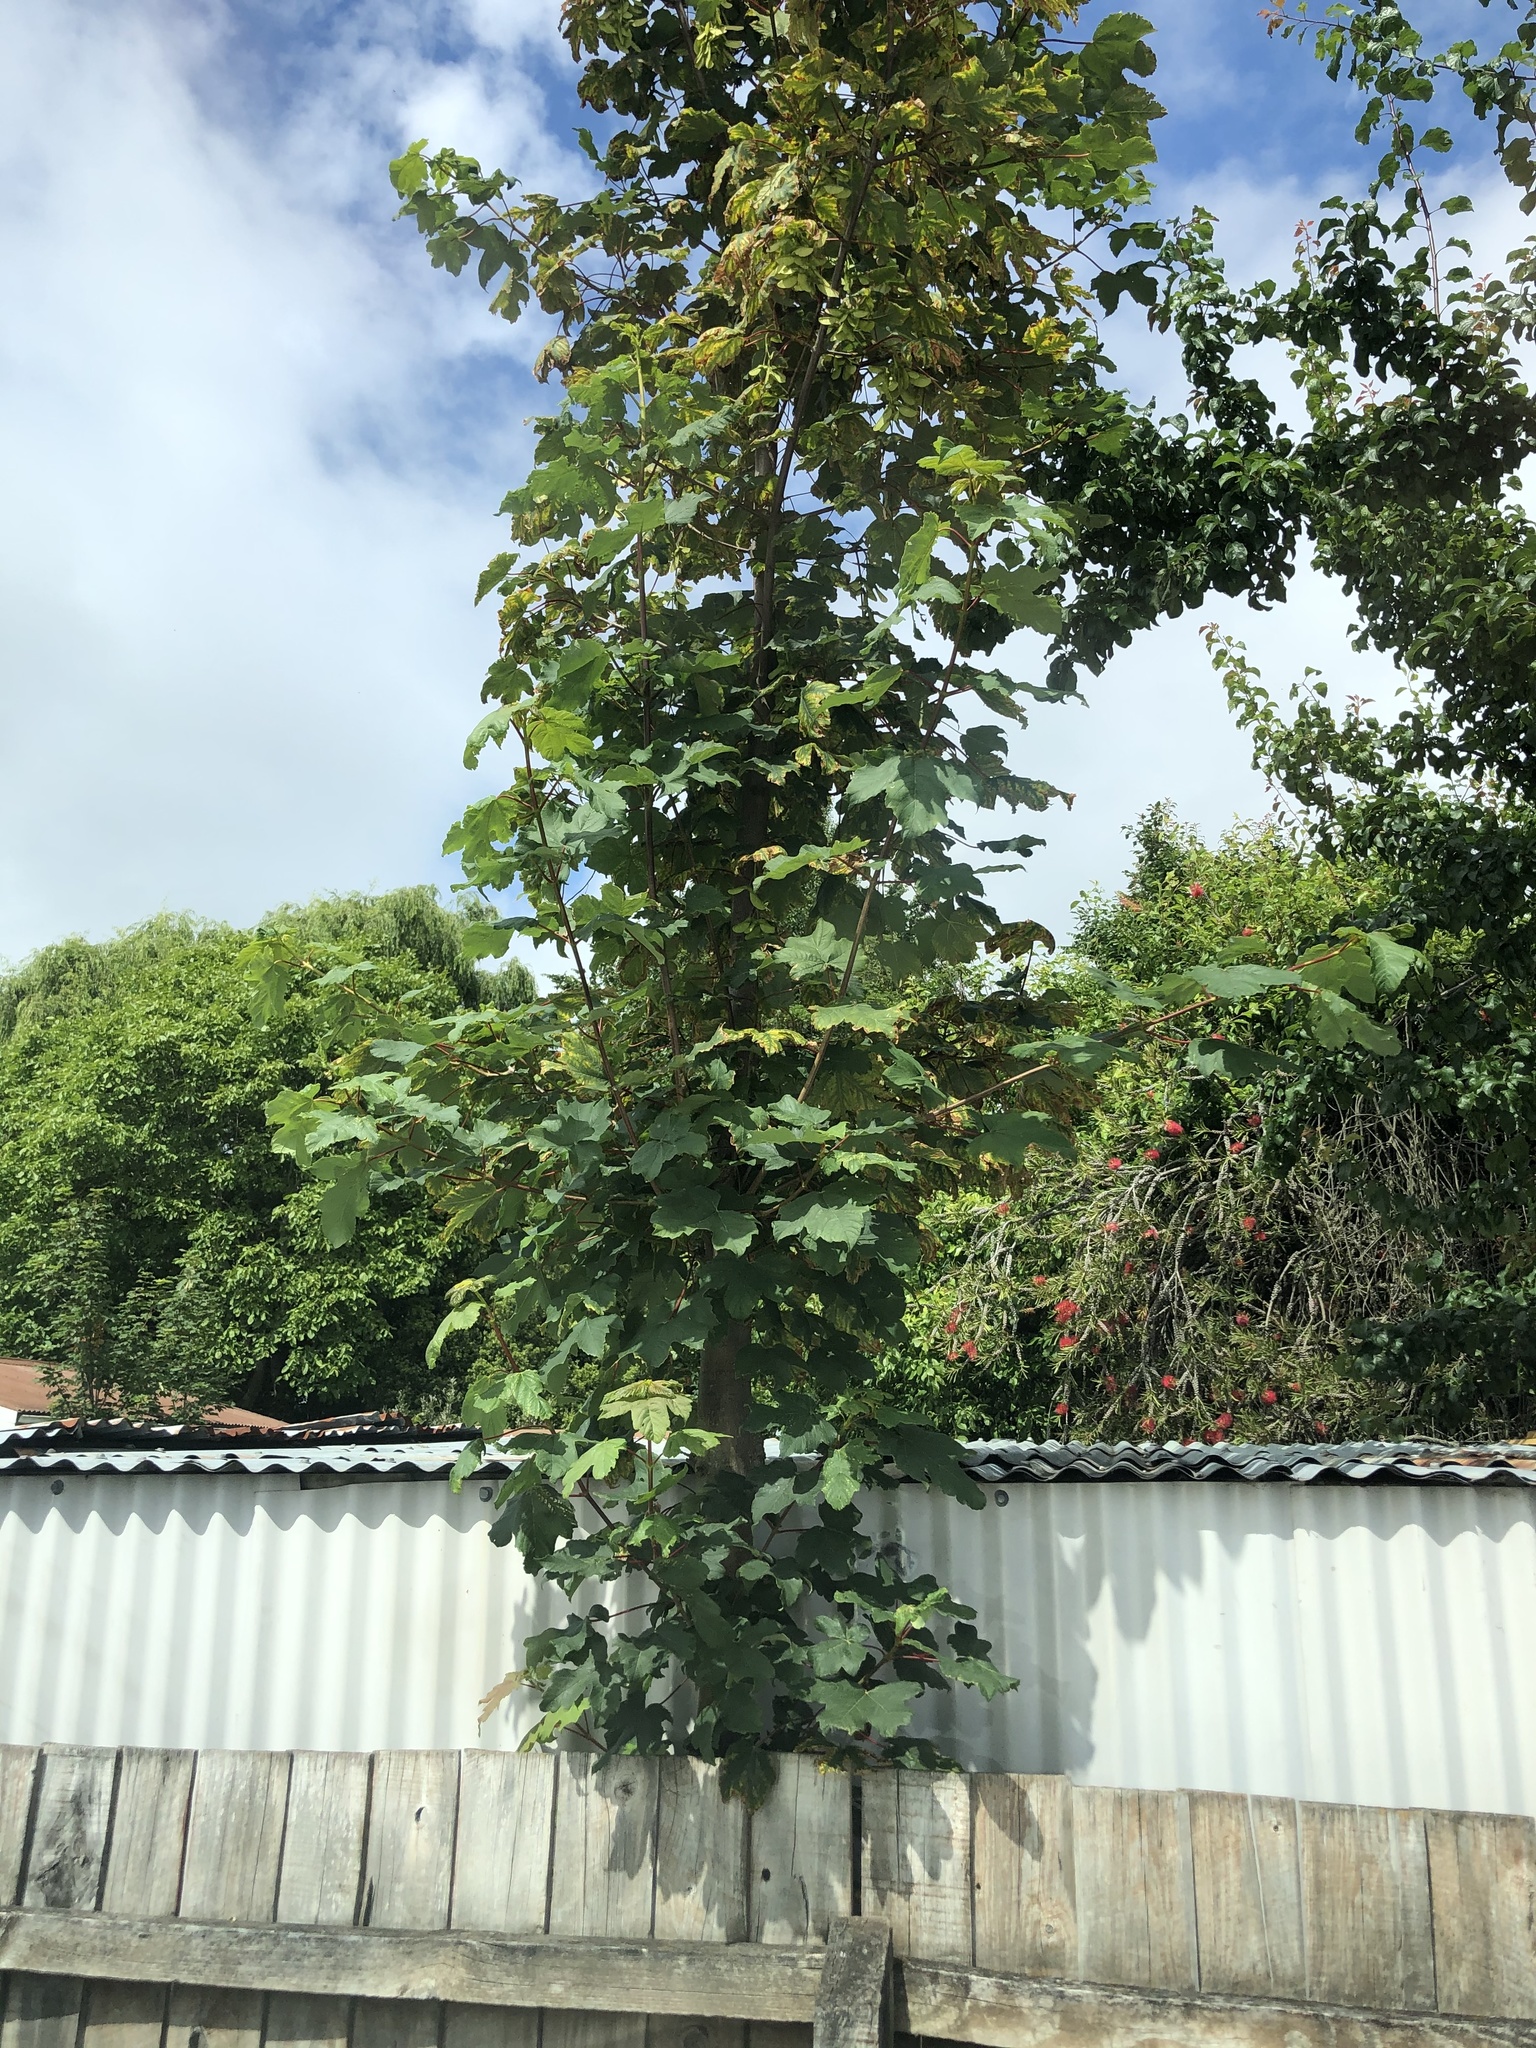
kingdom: Plantae
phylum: Tracheophyta
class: Magnoliopsida
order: Sapindales
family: Sapindaceae
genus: Acer
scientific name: Acer pseudoplatanus
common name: Sycamore
